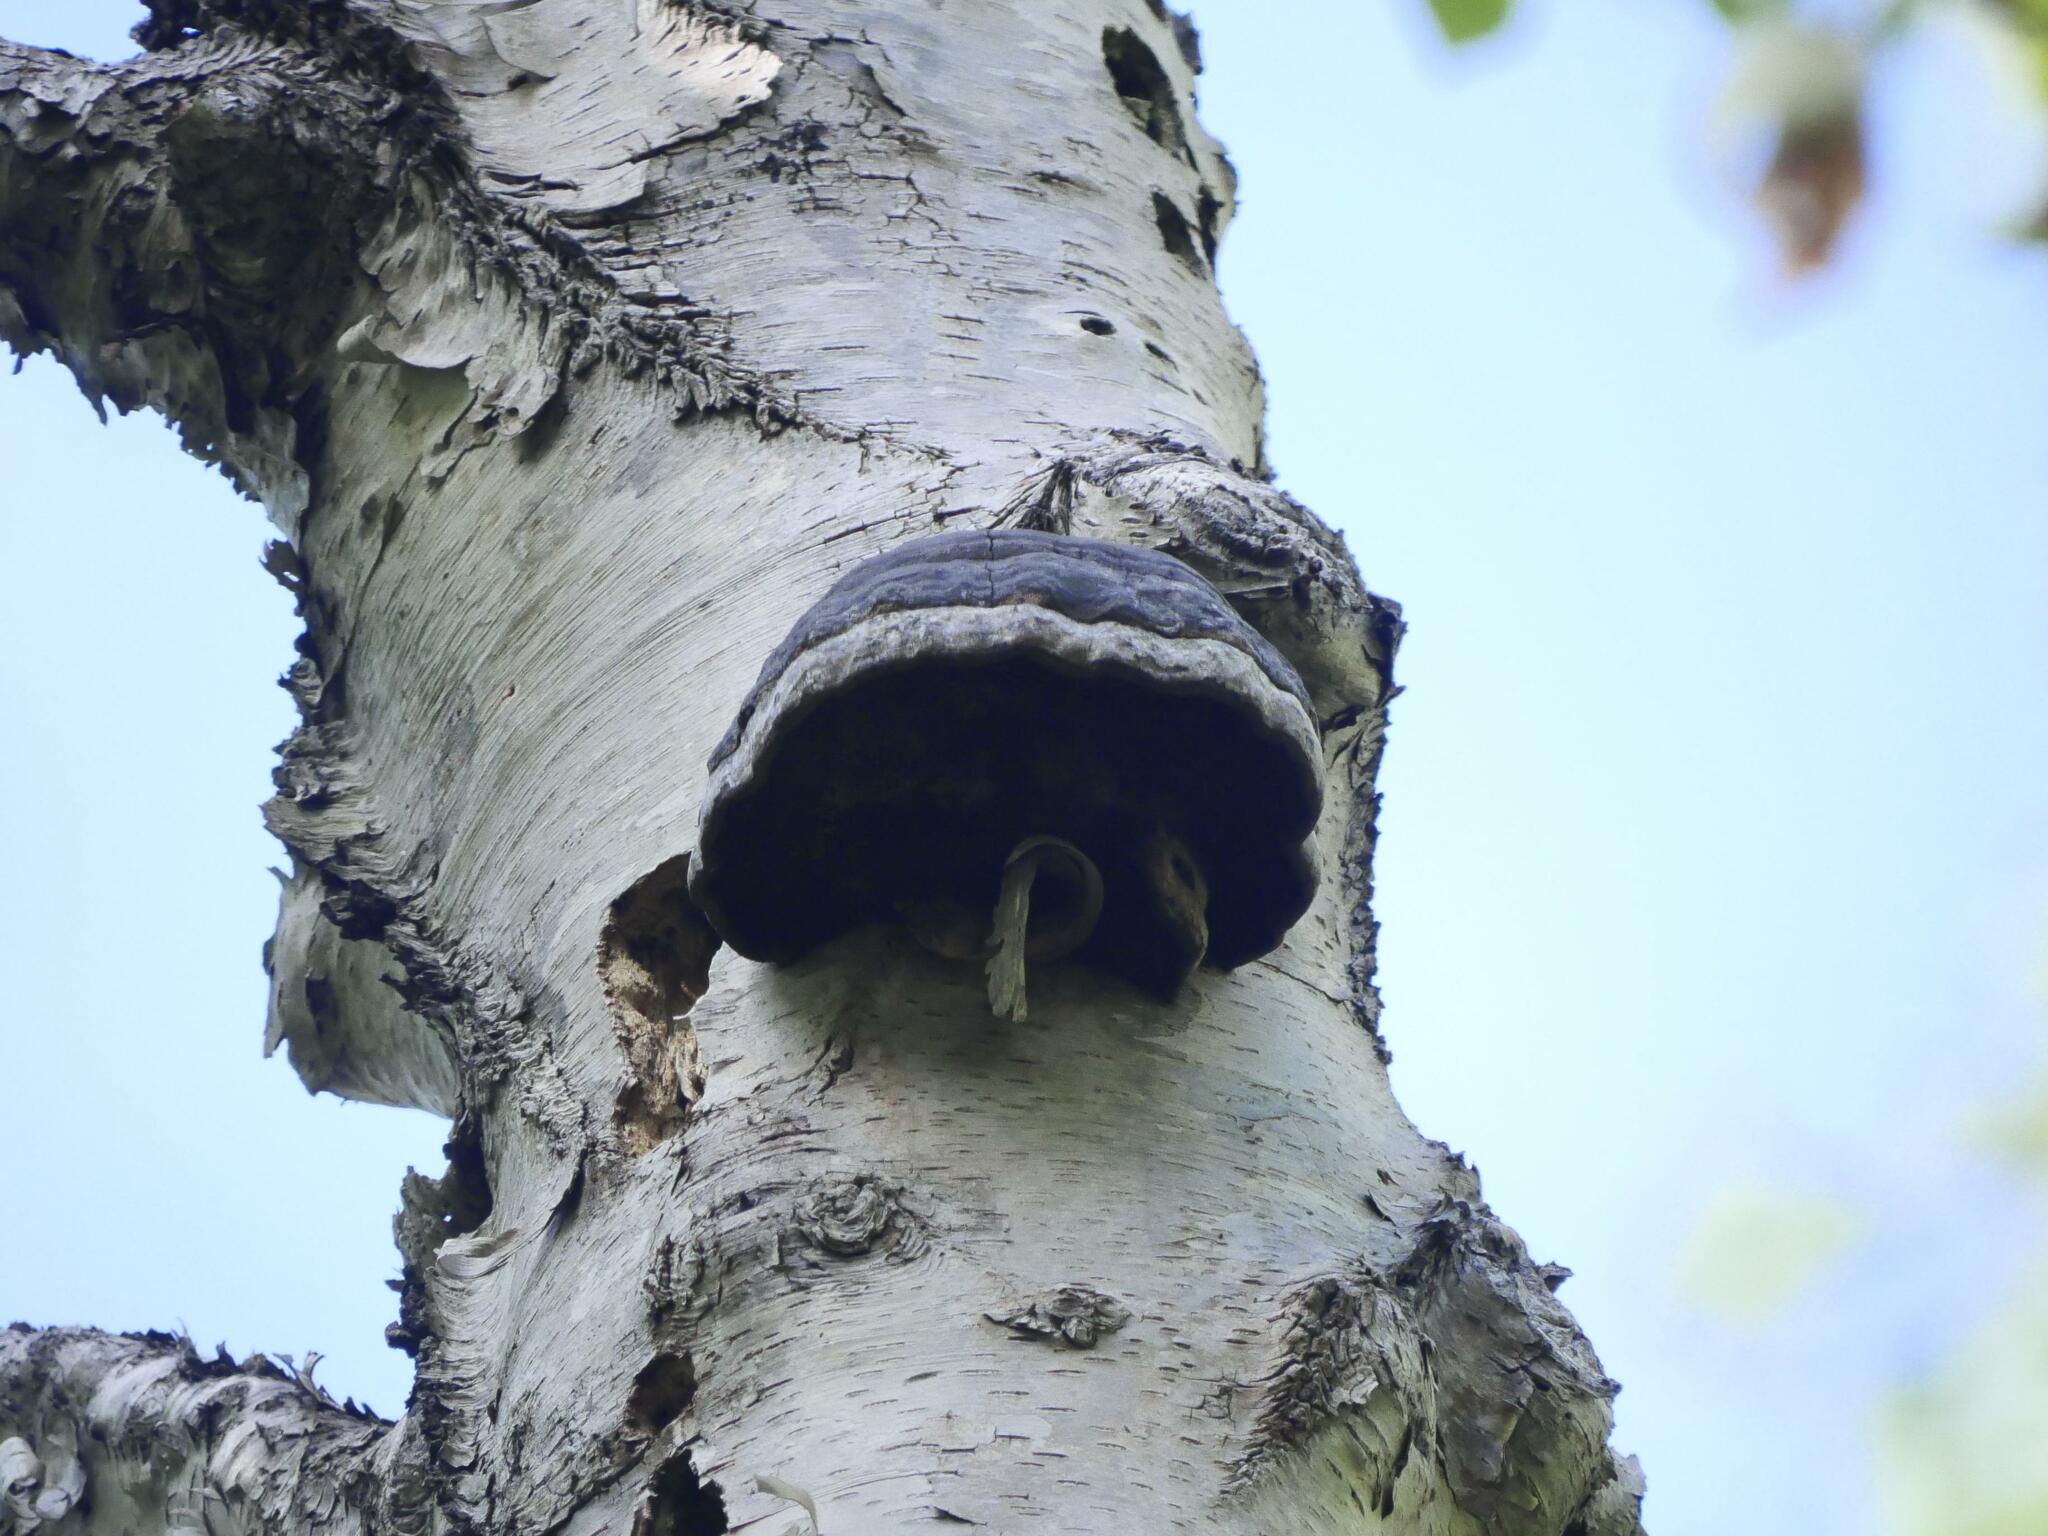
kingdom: Fungi
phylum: Basidiomycota
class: Agaricomycetes
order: Polyporales
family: Polyporaceae
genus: Fomes
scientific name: Fomes fomentarius
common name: Hoof fungus
